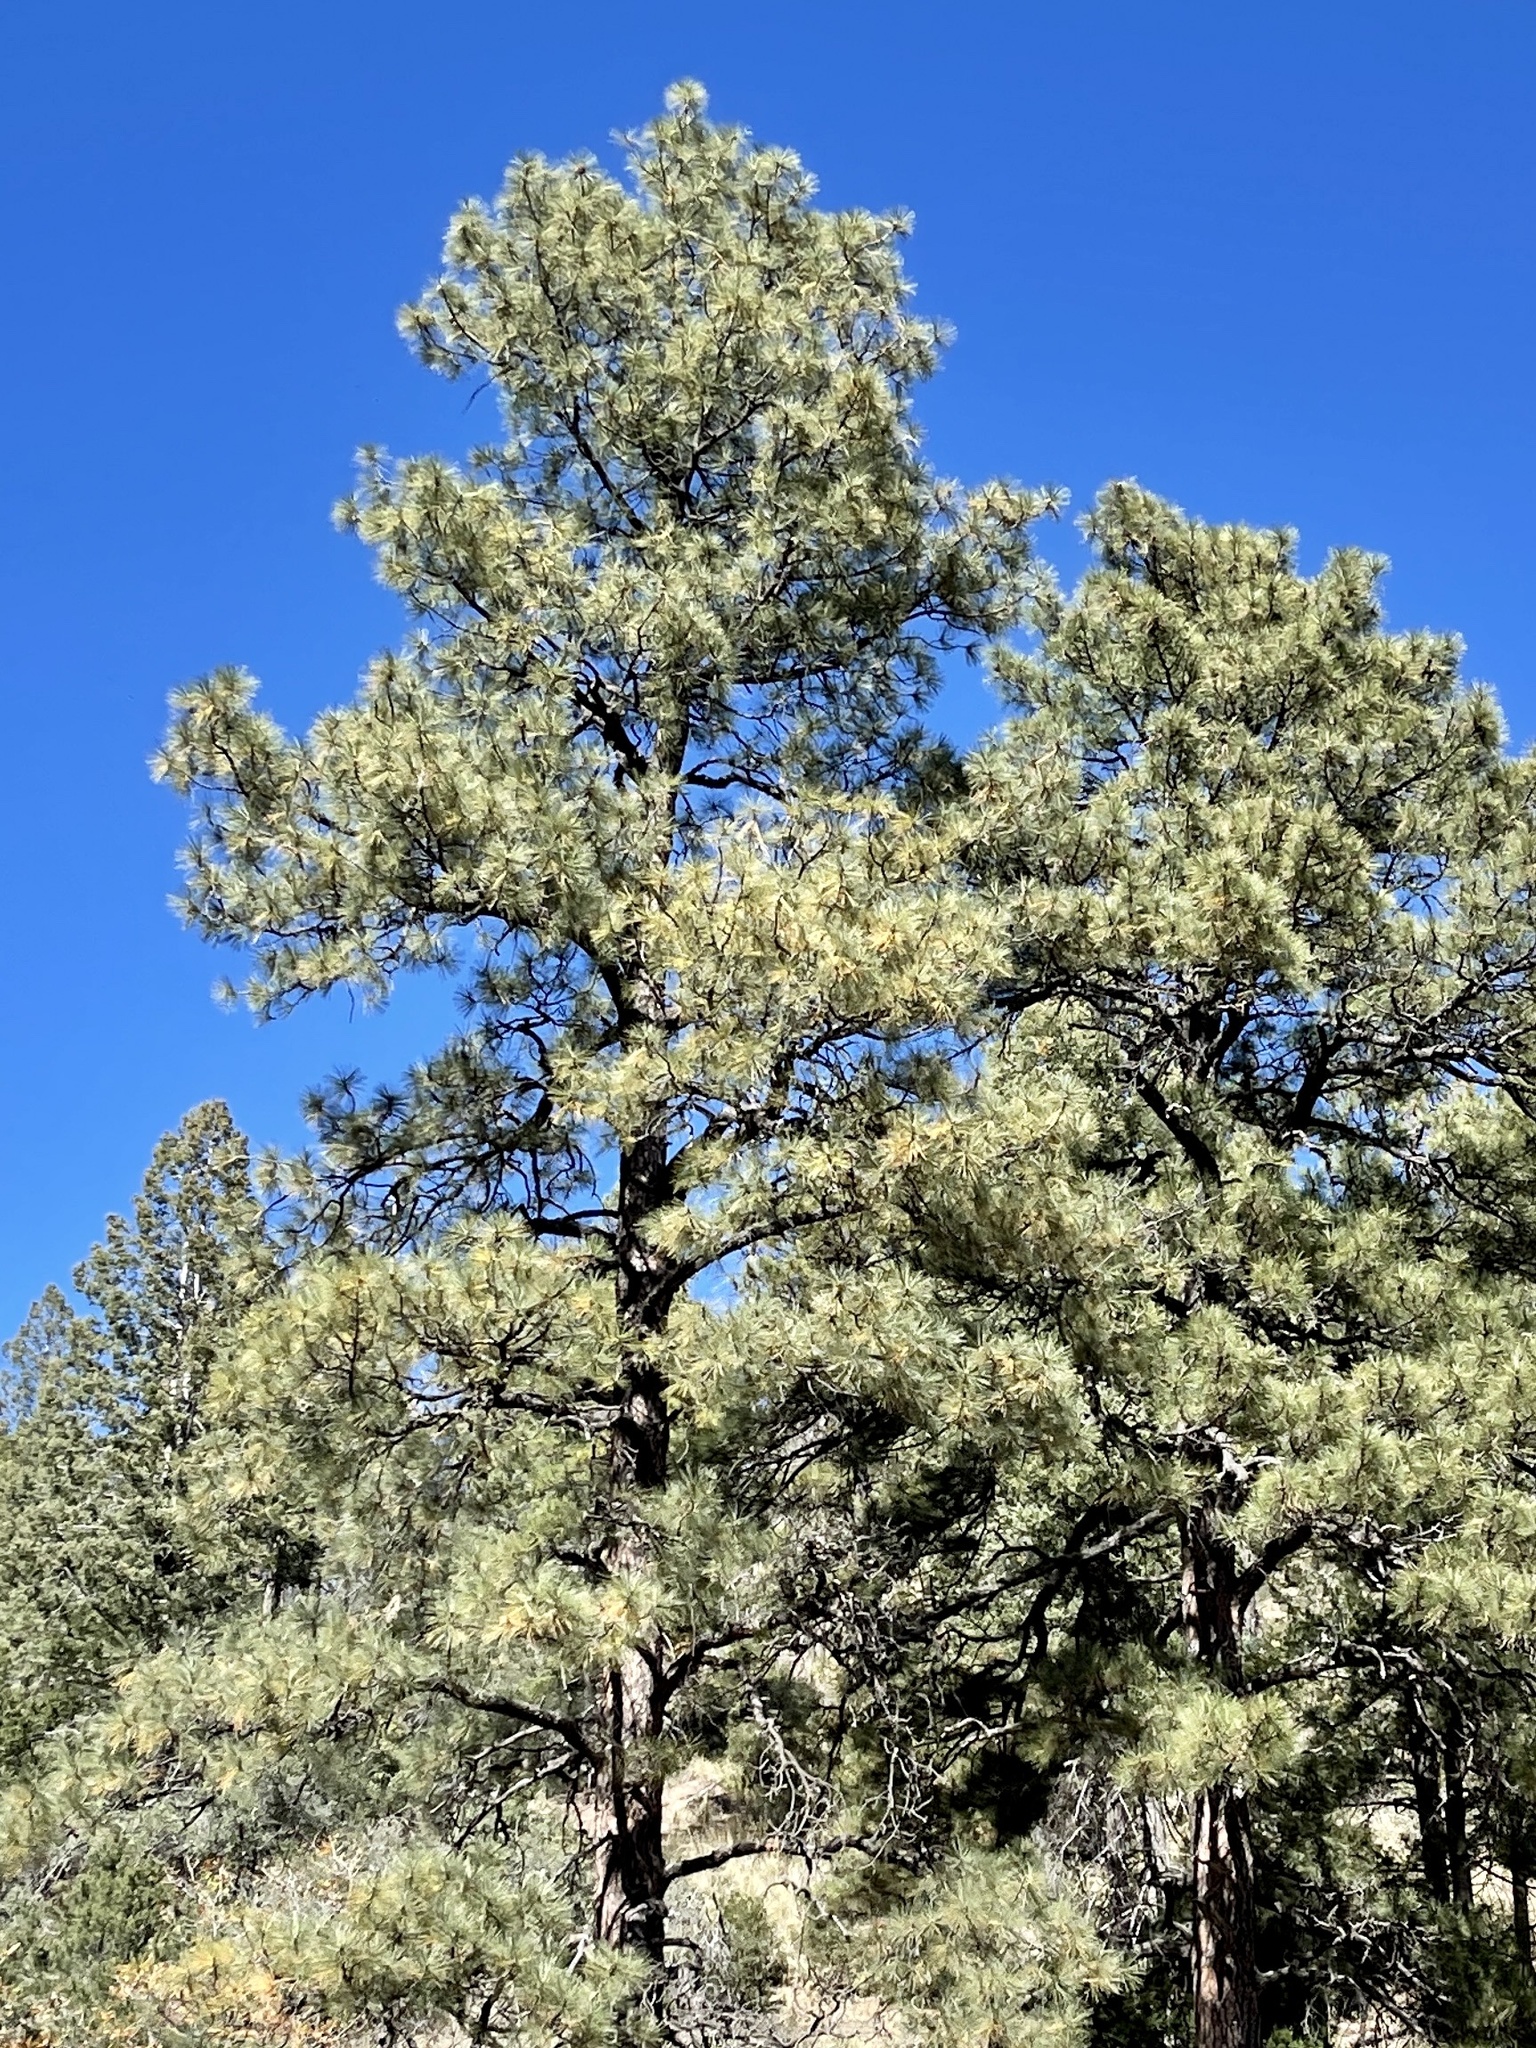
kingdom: Plantae
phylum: Tracheophyta
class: Pinopsida
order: Pinales
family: Pinaceae
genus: Pinus
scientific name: Pinus ponderosa
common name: Western yellow-pine
